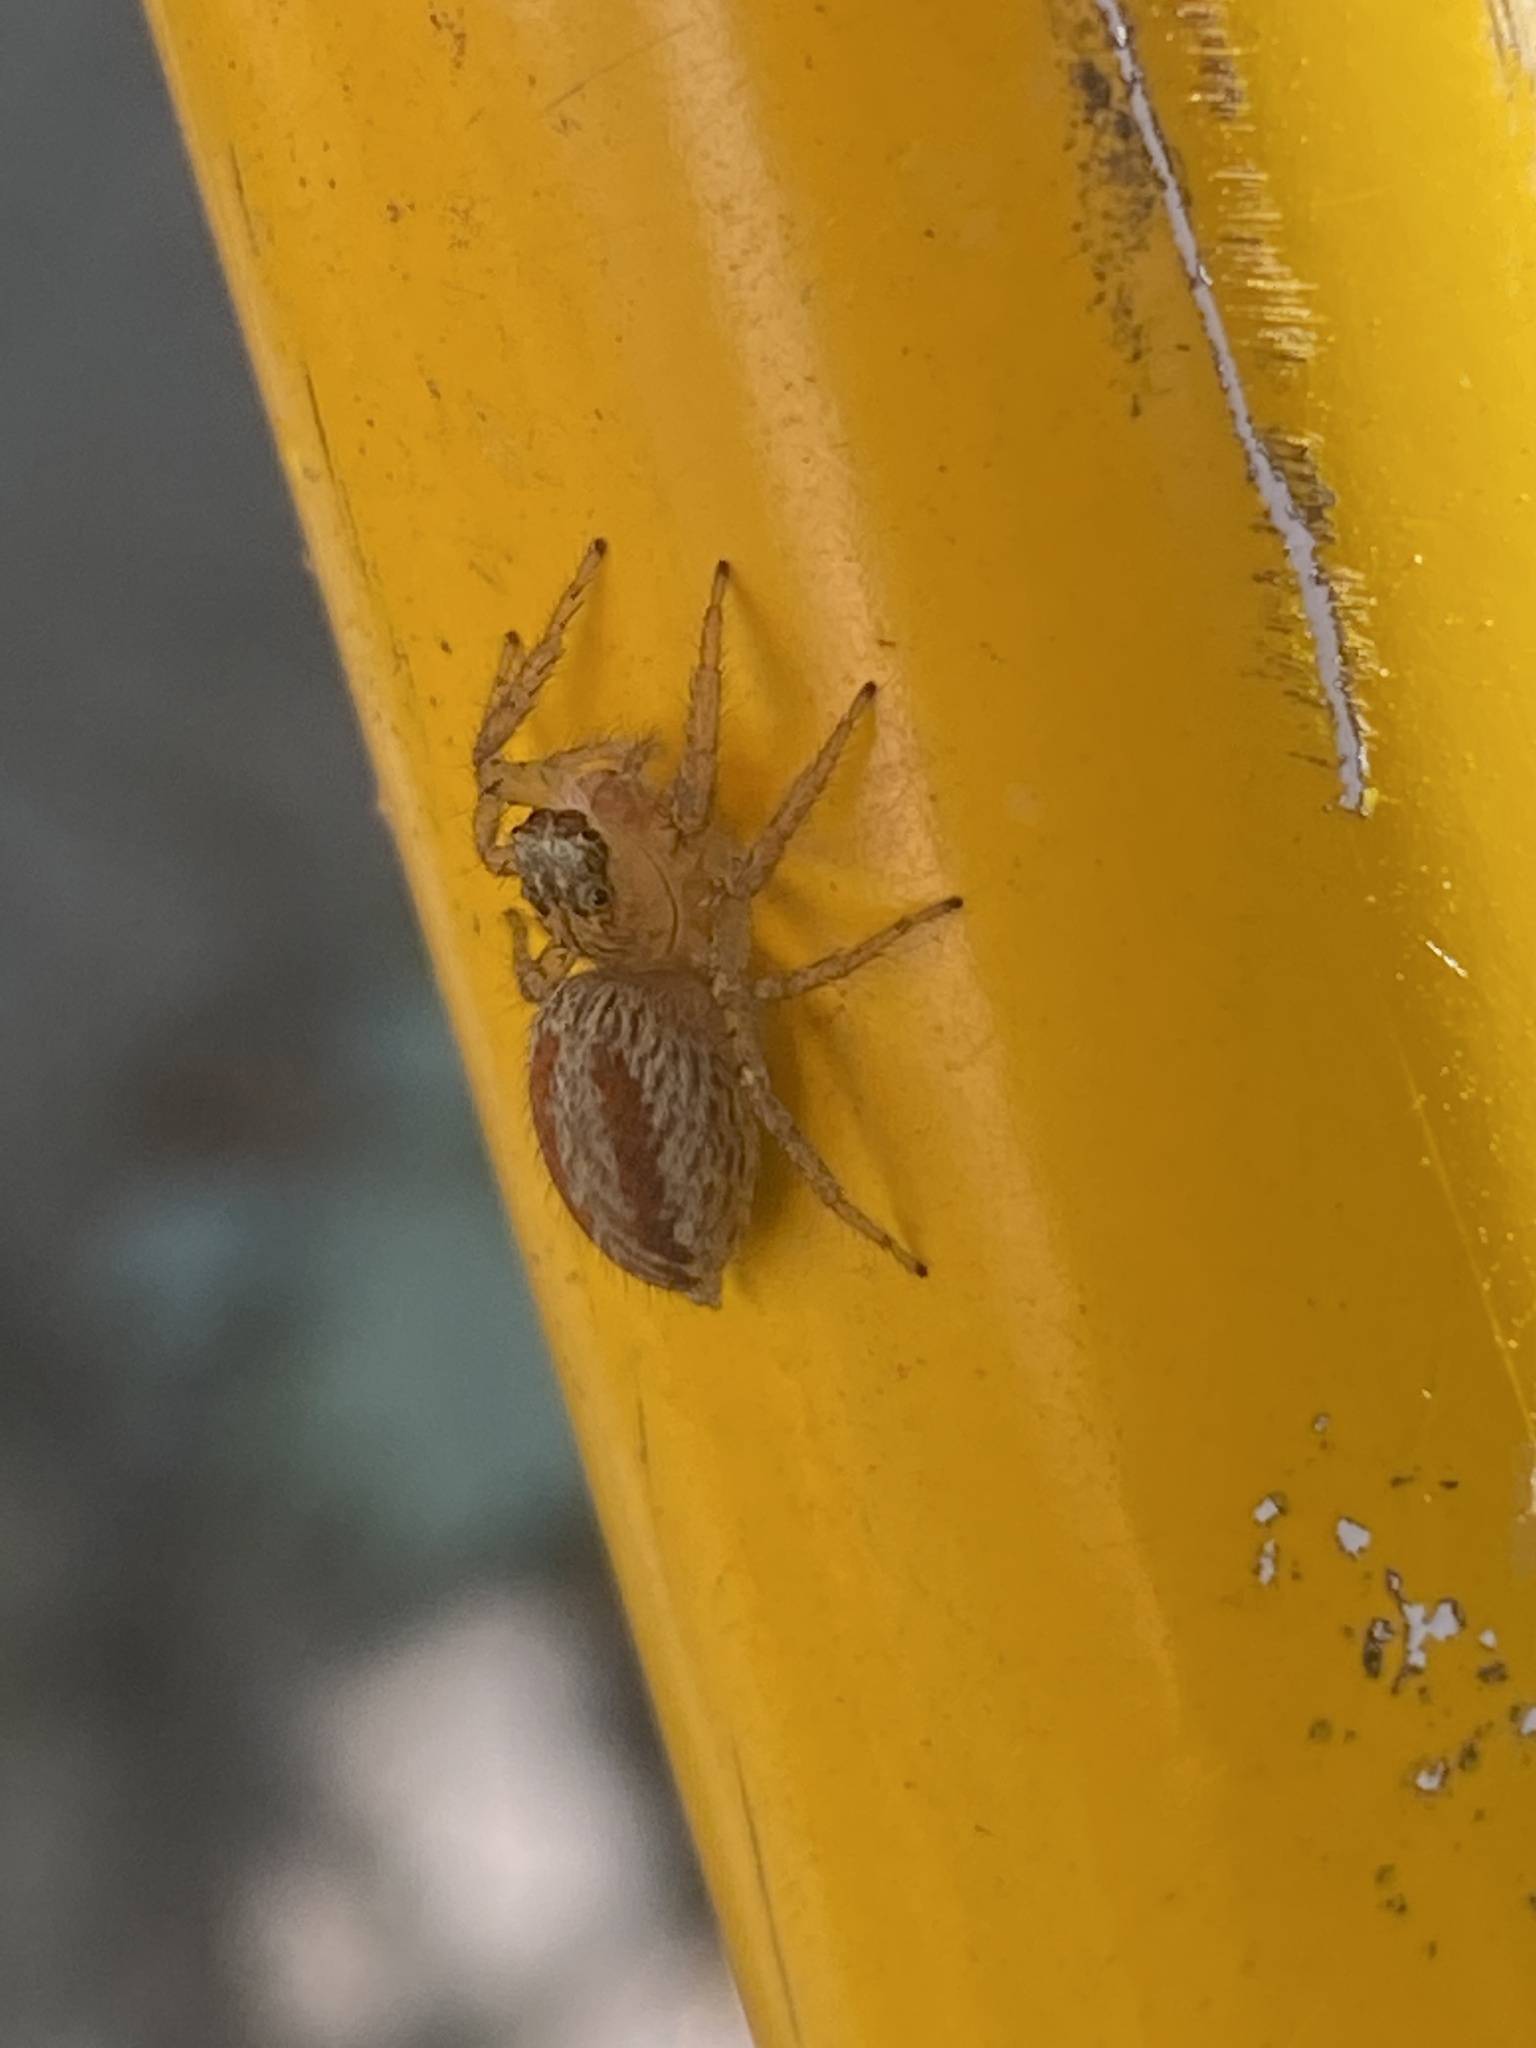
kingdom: Animalia
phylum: Arthropoda
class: Arachnida
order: Araneae
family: Salticidae
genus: Maevia
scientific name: Maevia inclemens
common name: Dimorphic jumper
